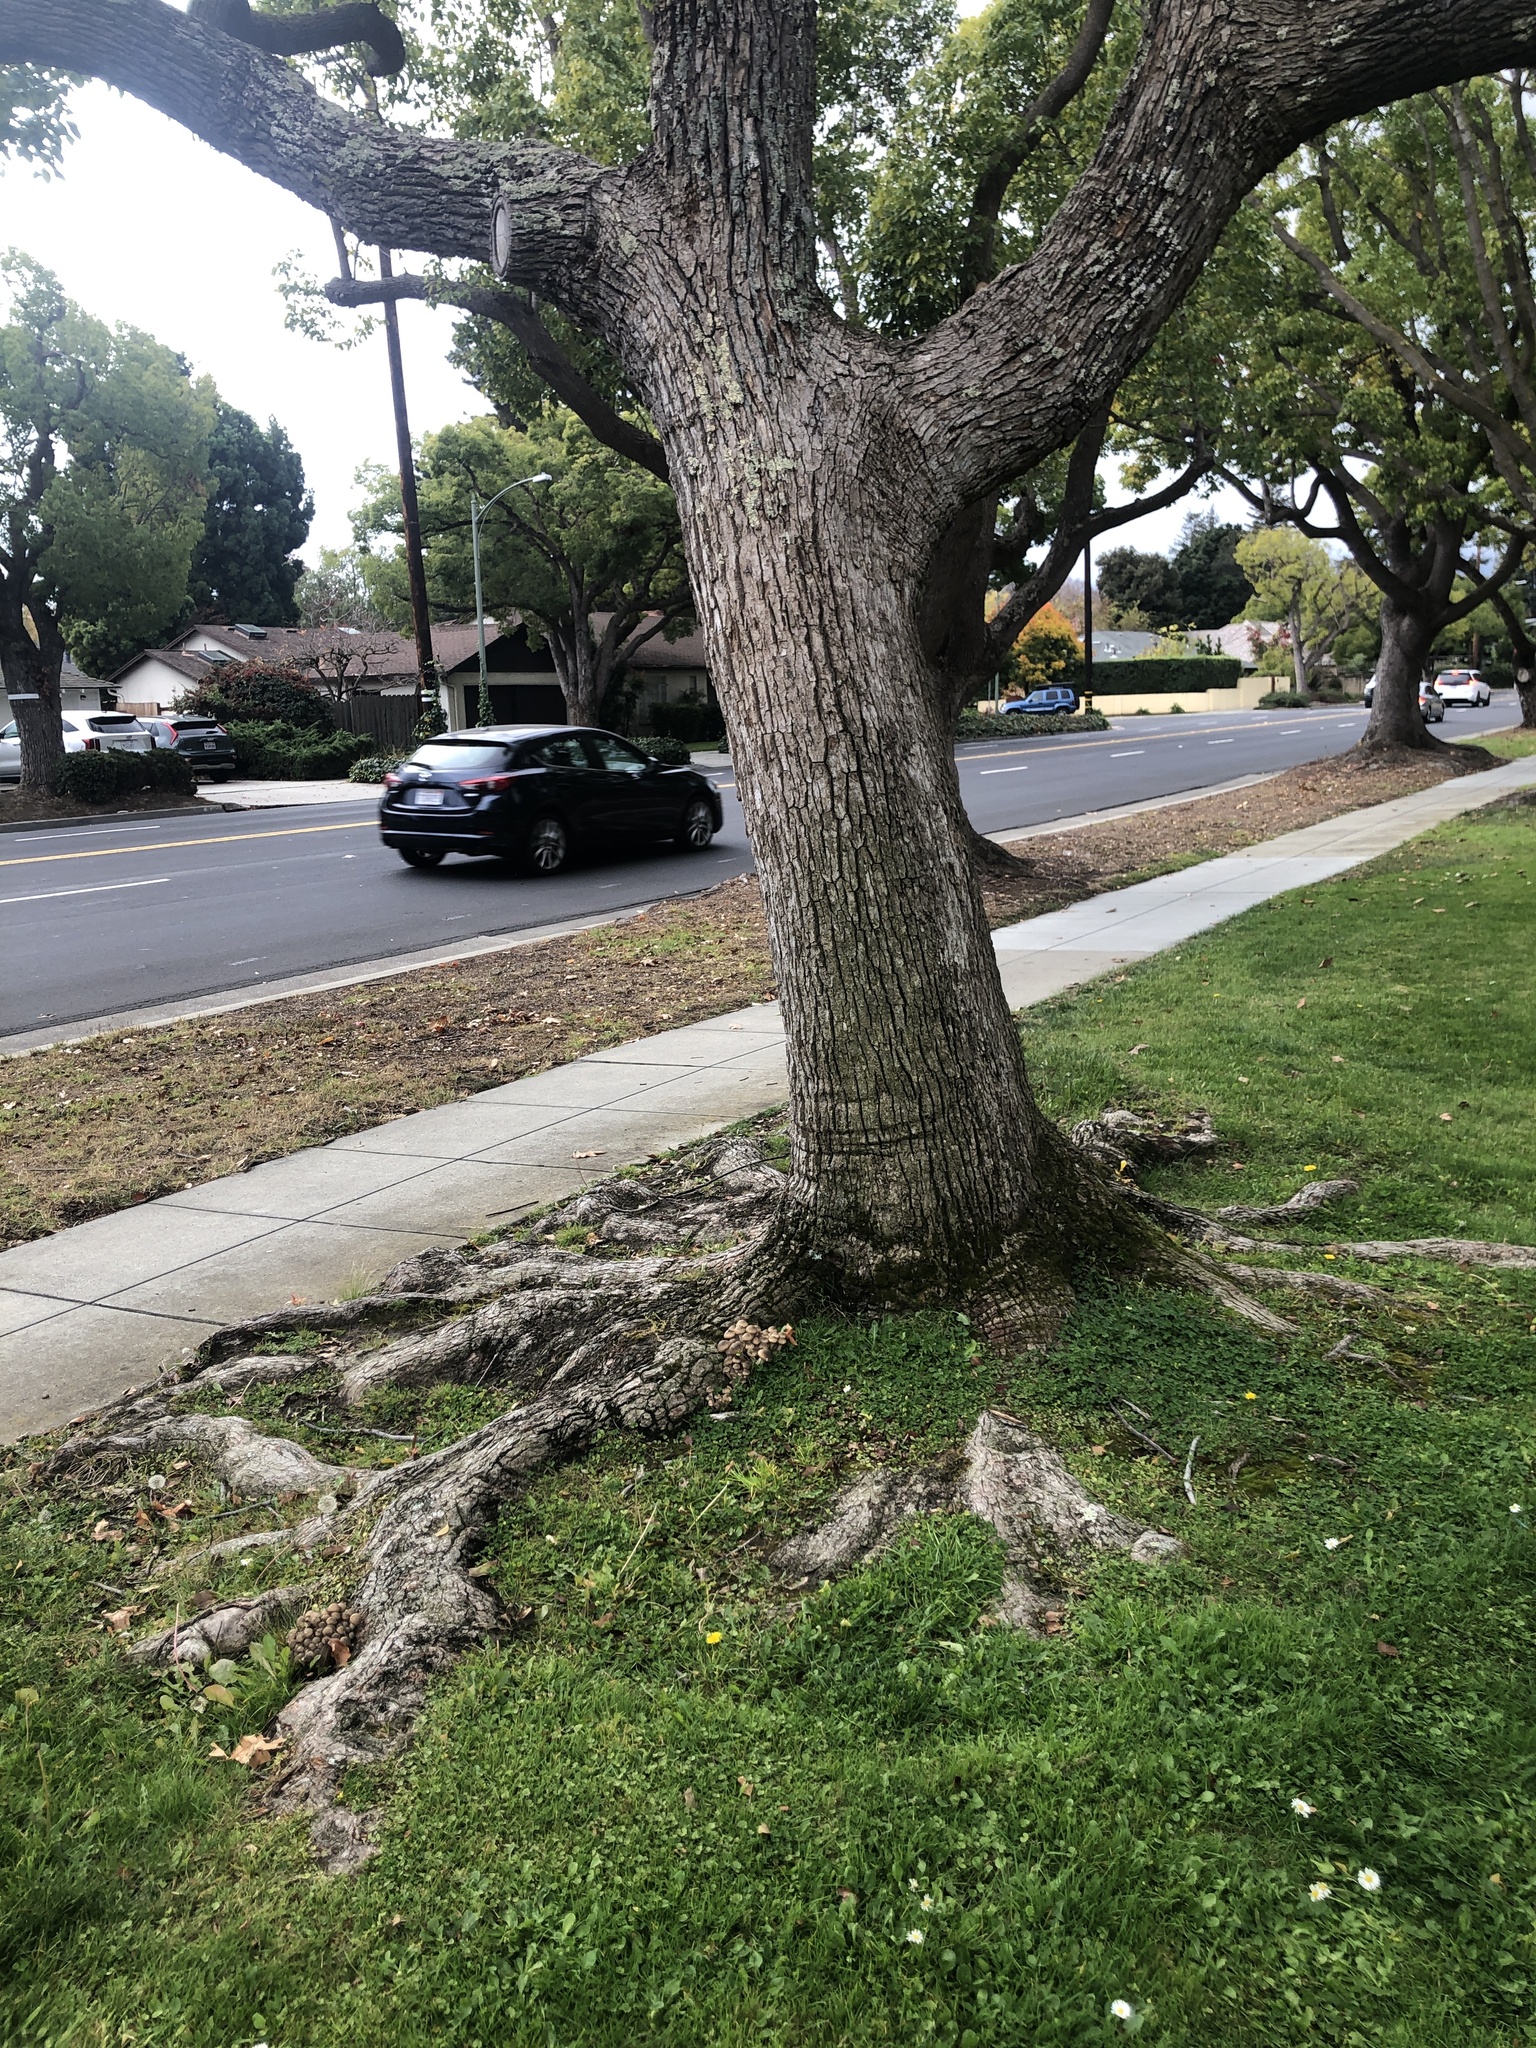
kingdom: Fungi
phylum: Basidiomycota
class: Agaricomycetes
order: Agaricales
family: Physalacriaceae
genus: Armillaria
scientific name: Armillaria mellea
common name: Honey fungus
